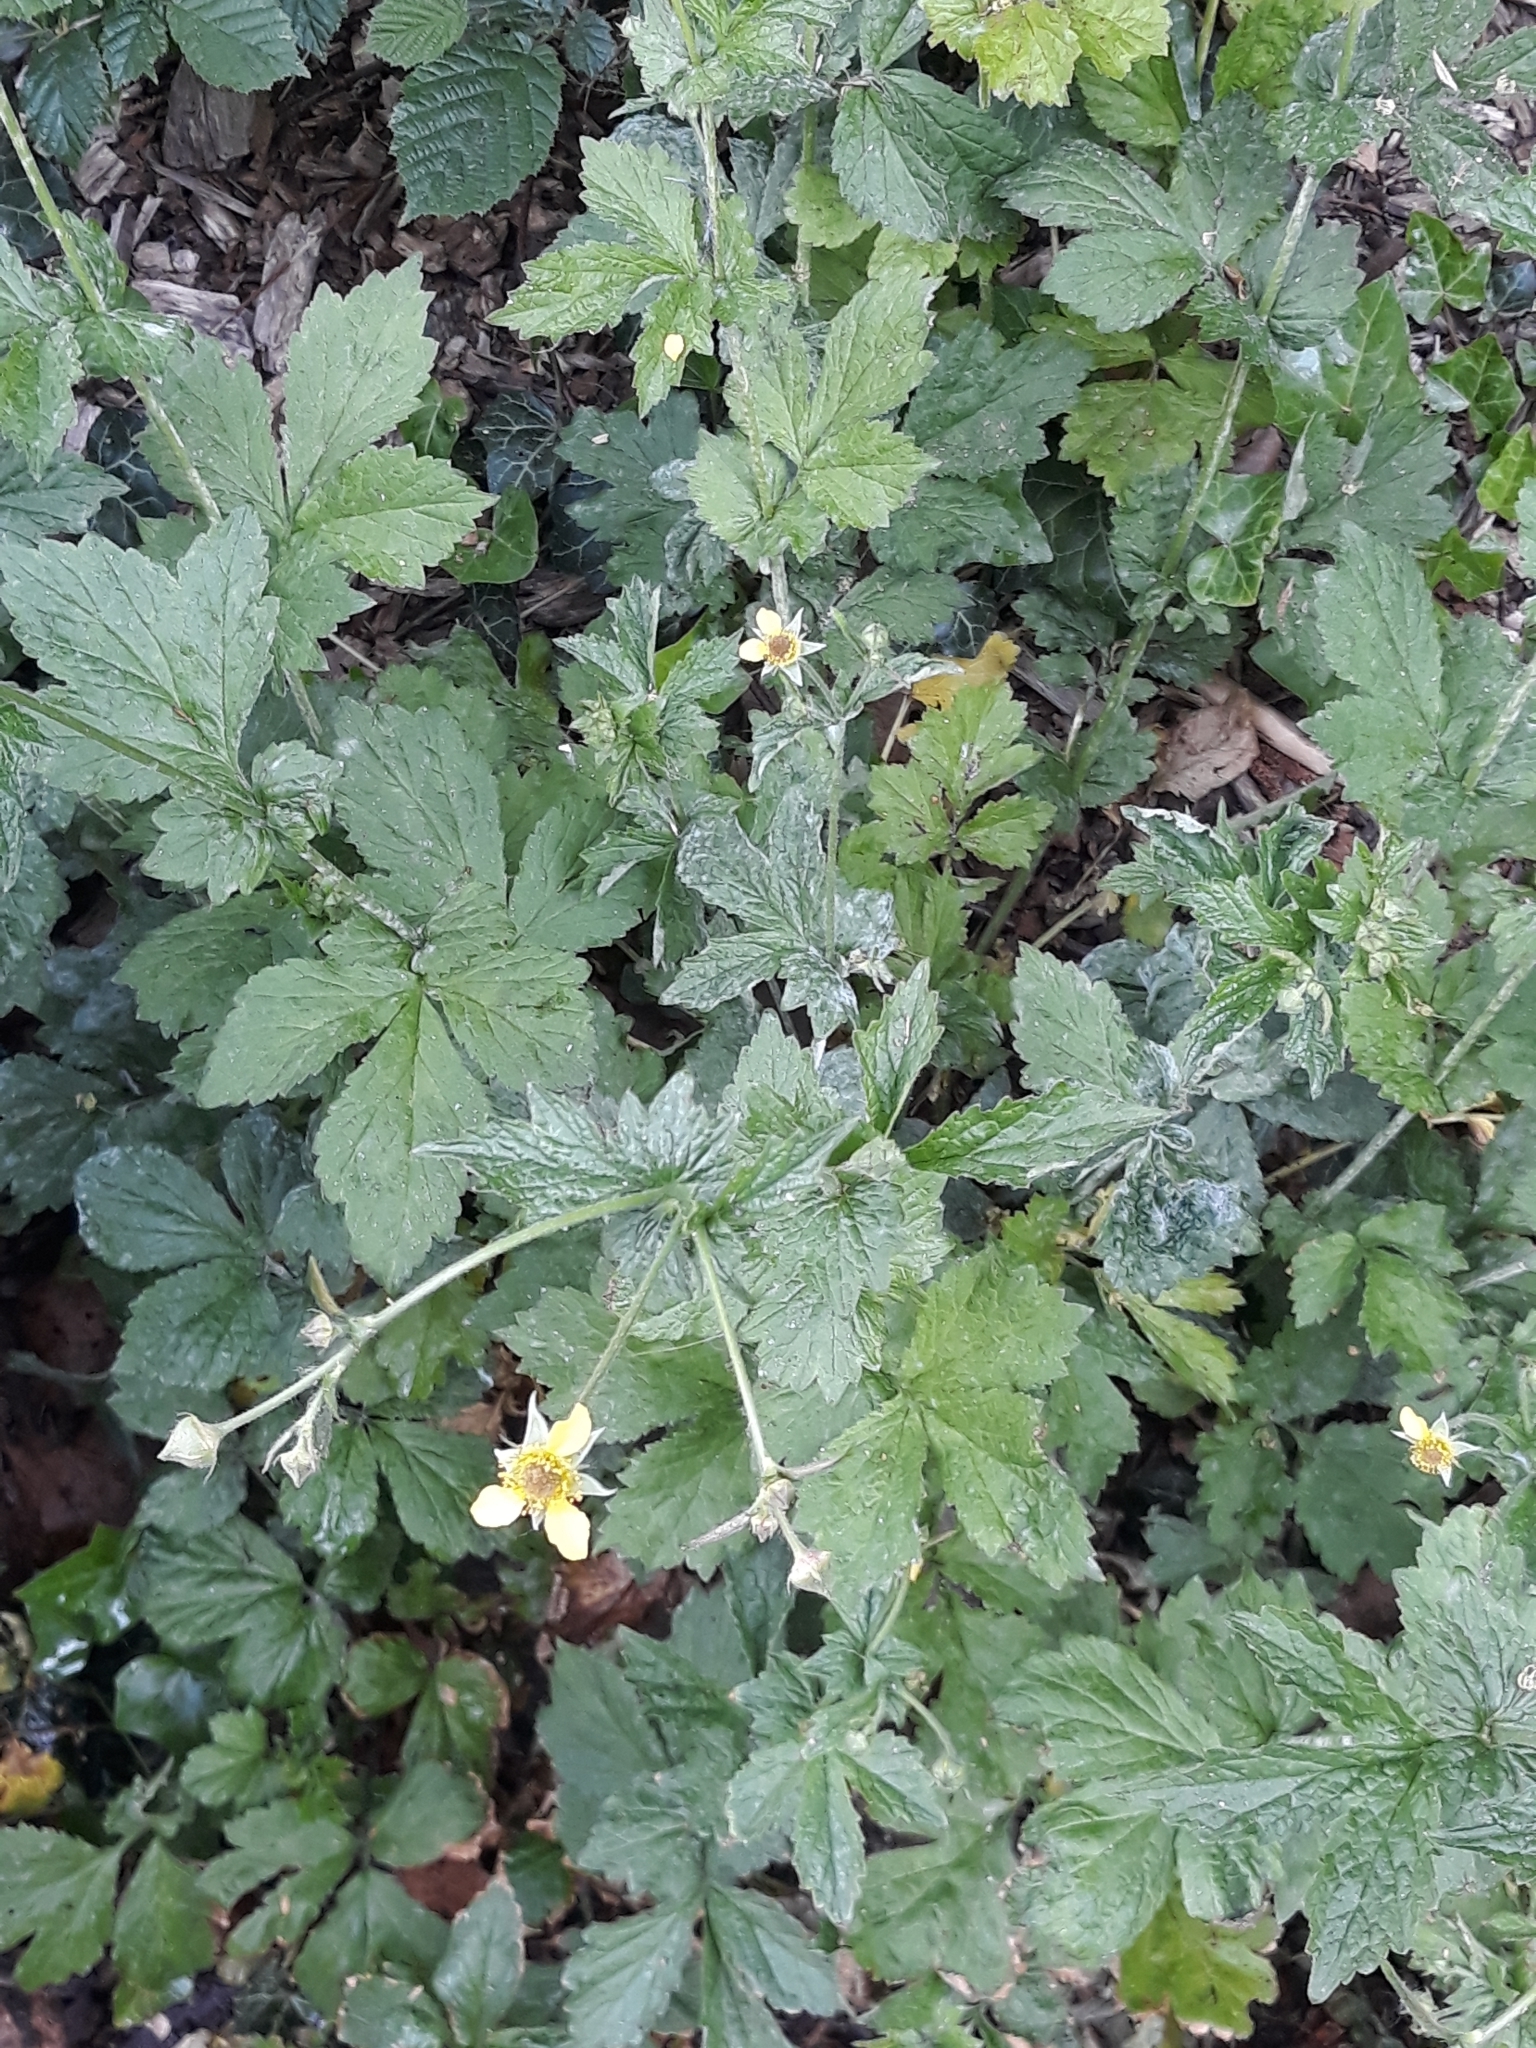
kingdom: Plantae
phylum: Tracheophyta
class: Magnoliopsida
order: Rosales
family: Rosaceae
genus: Geum
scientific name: Geum urbanum
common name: Wood avens
